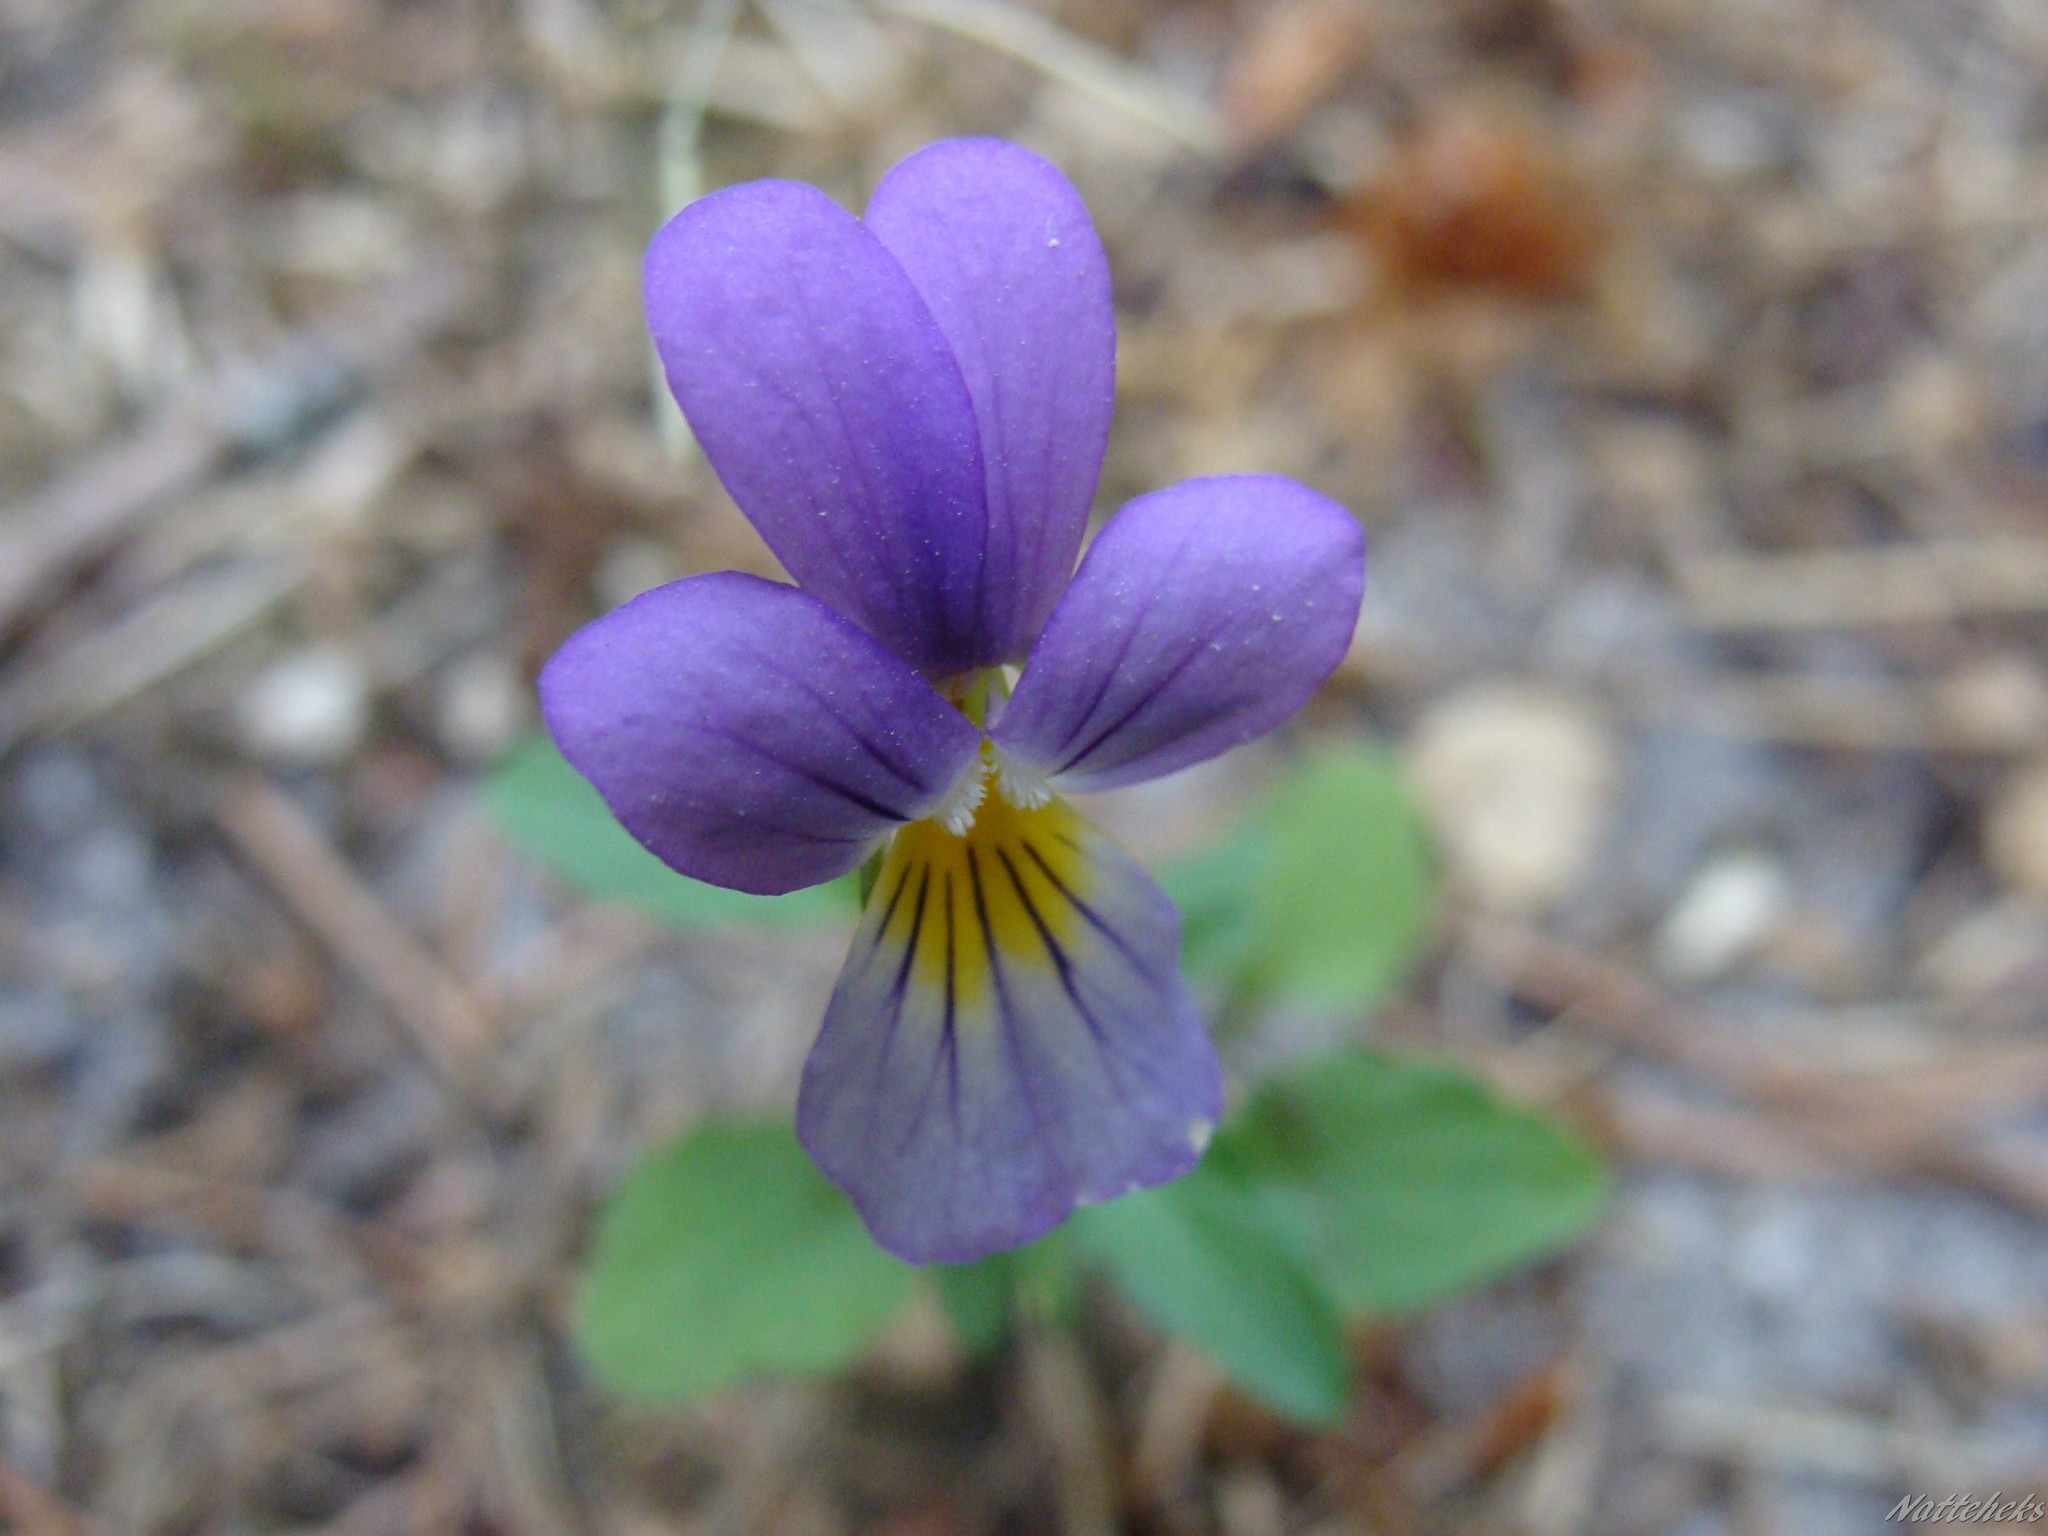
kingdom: Plantae
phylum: Tracheophyta
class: Magnoliopsida
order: Malpighiales
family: Violaceae
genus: Viola
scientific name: Viola tricolor
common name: Pansy
